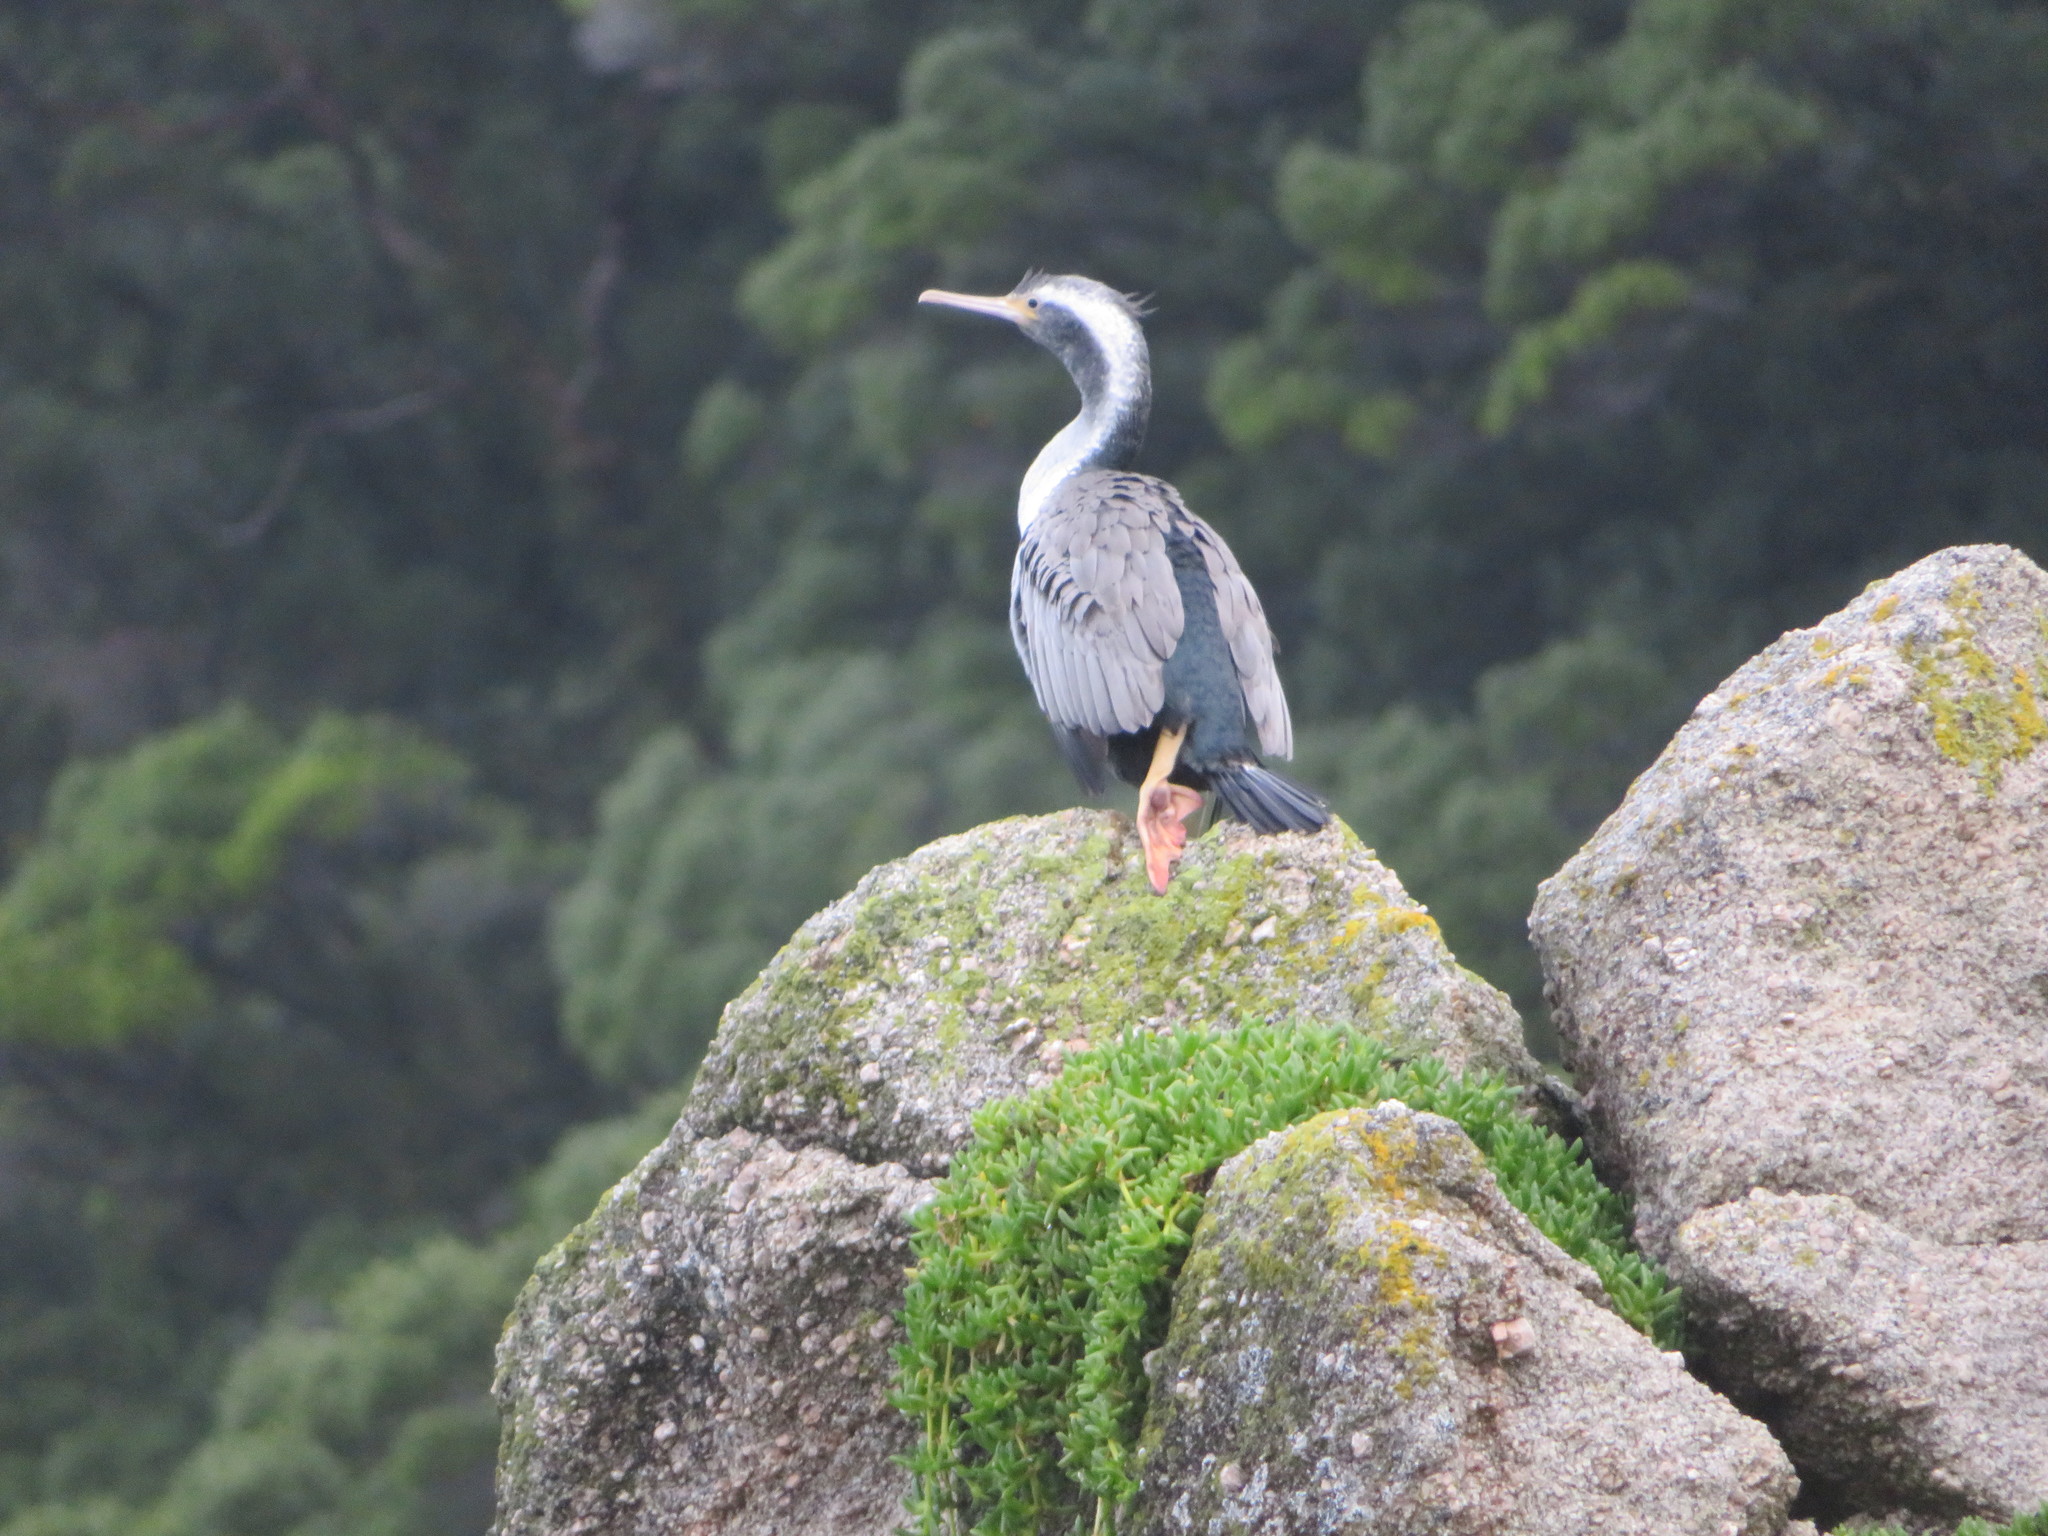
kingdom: Animalia
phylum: Chordata
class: Aves
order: Suliformes
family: Phalacrocoracidae
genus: Phalacrocorax
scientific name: Phalacrocorax punctatus
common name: Spotted shag
